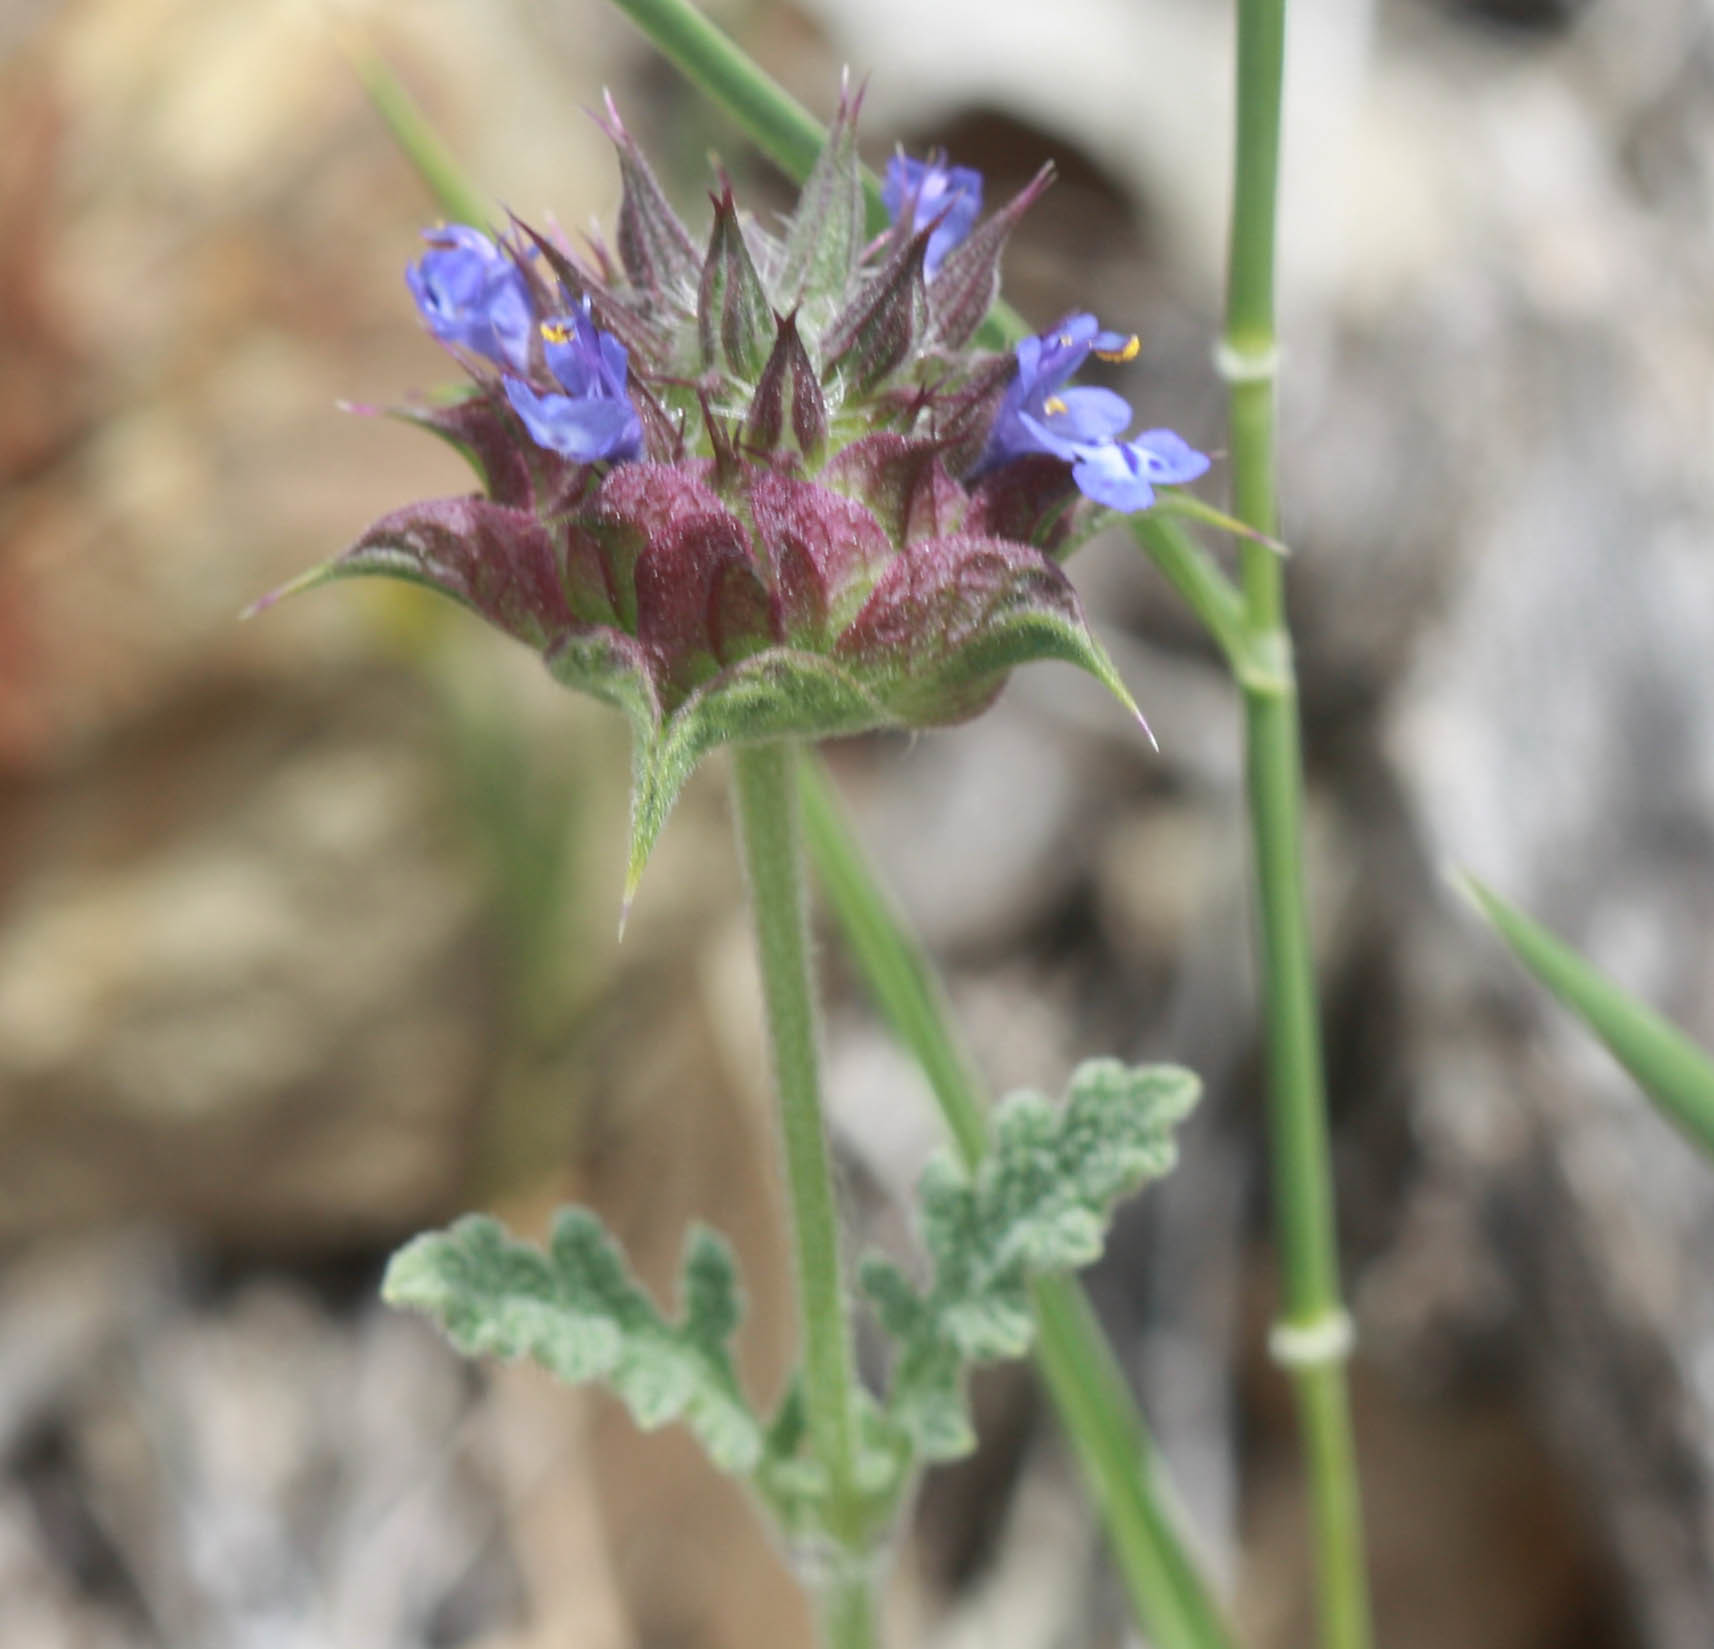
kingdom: Plantae
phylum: Tracheophyta
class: Magnoliopsida
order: Lamiales
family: Lamiaceae
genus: Salvia
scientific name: Salvia columbariae
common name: Chia
